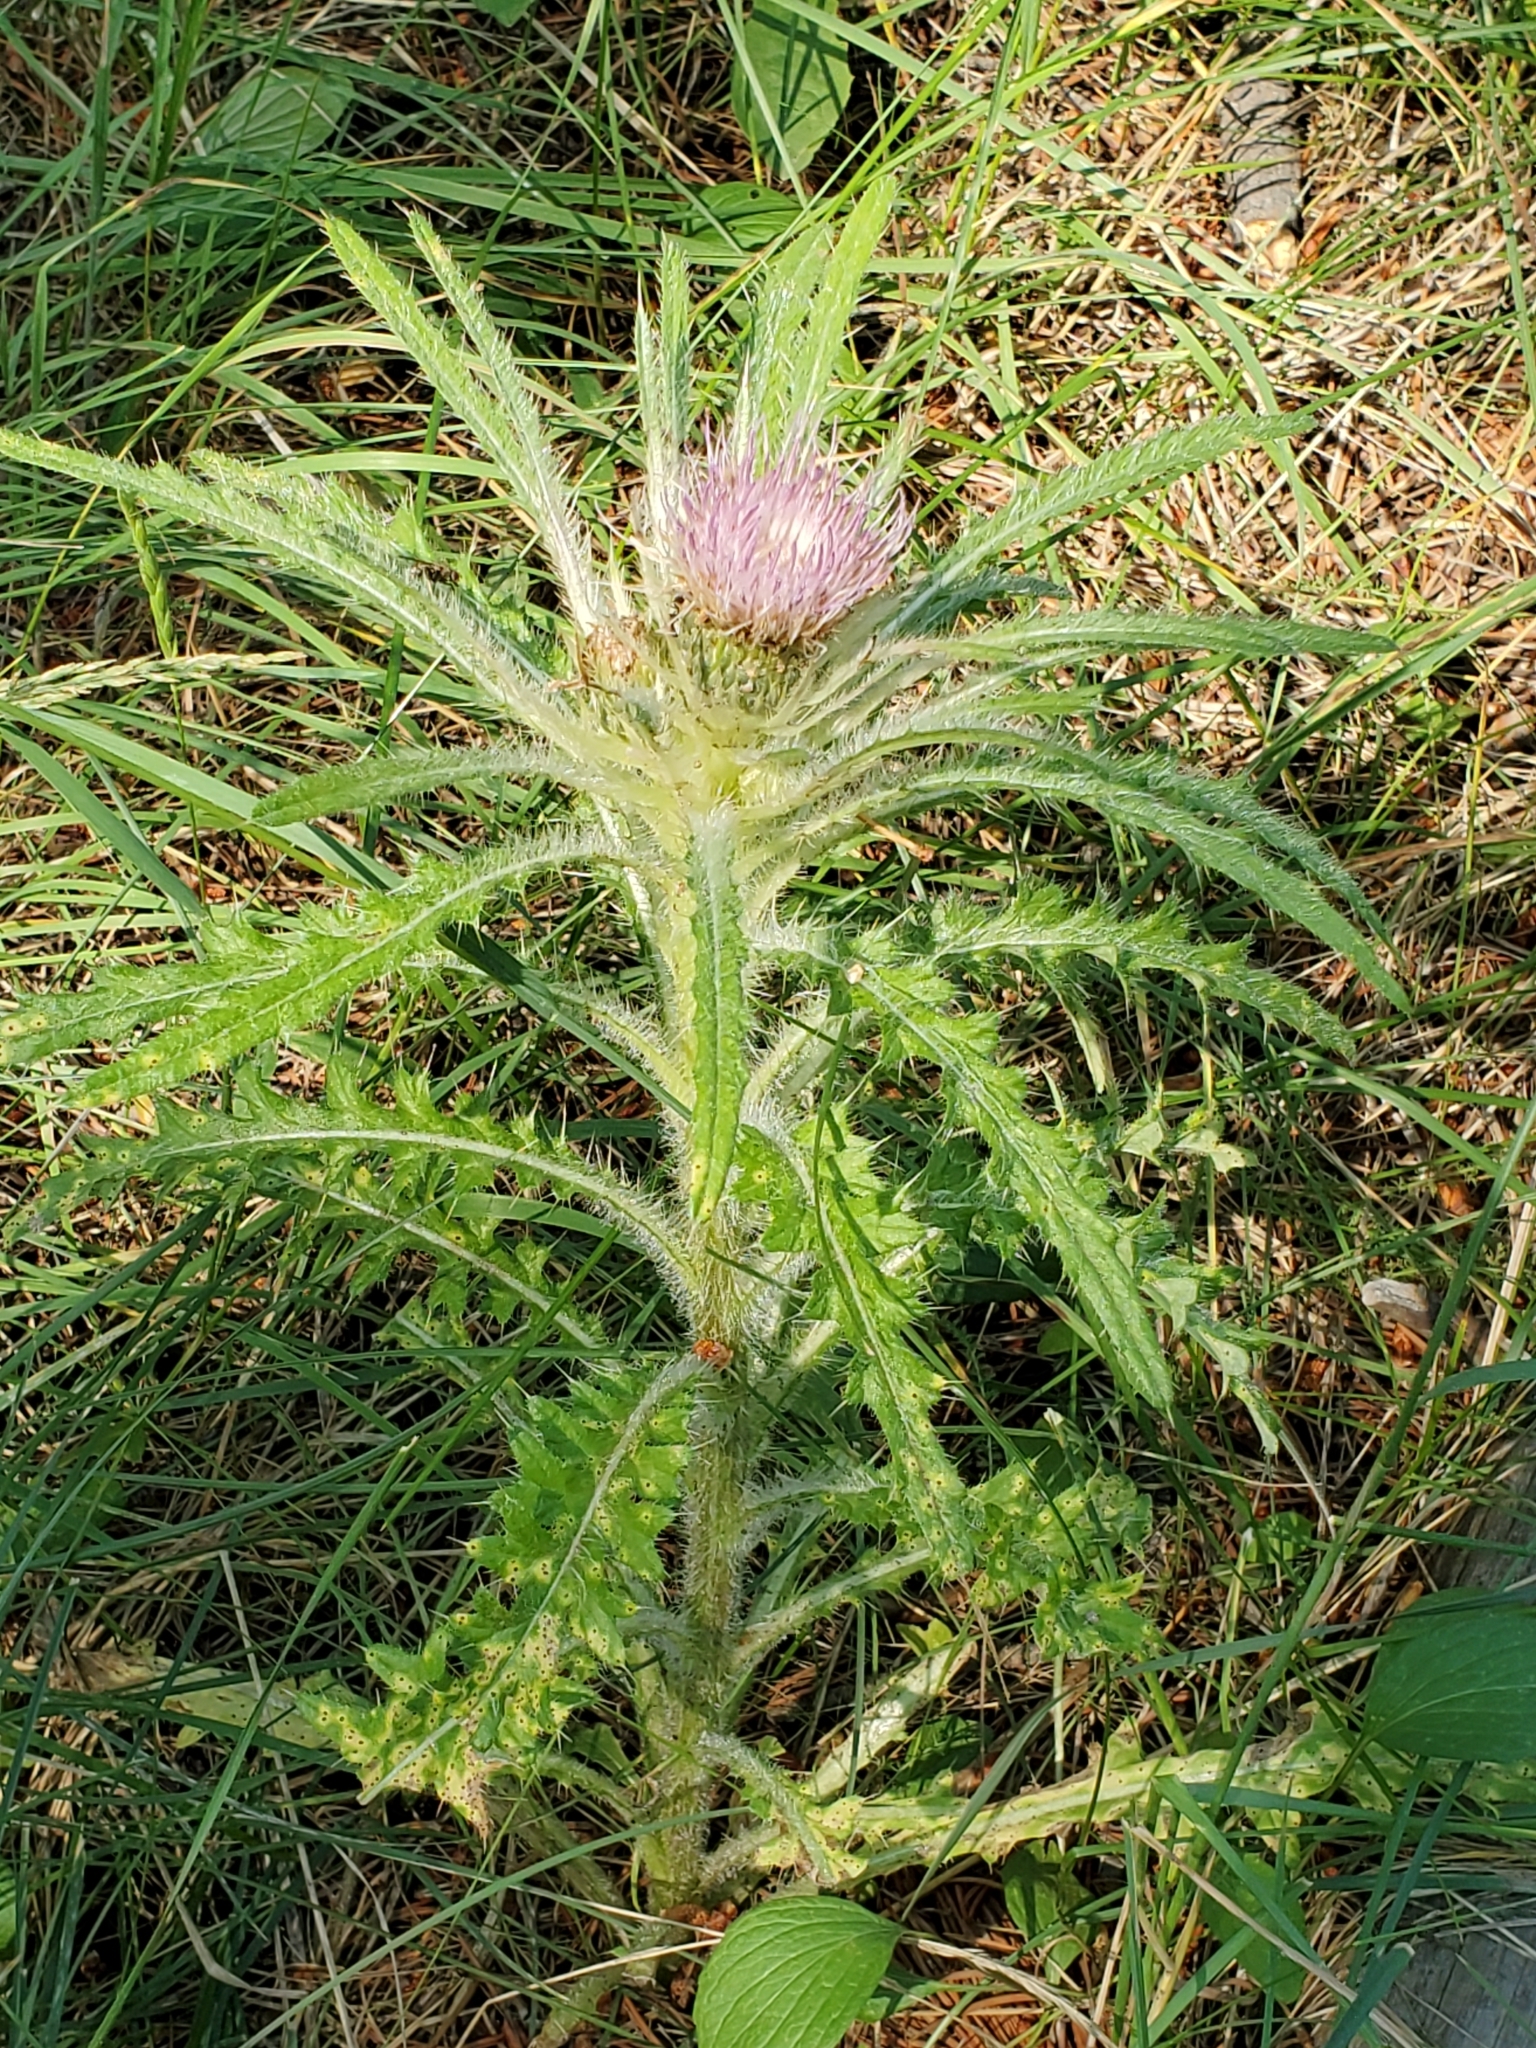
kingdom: Plantae
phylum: Tracheophyta
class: Magnoliopsida
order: Asterales
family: Asteraceae
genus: Cirsium
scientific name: Cirsium scariosum
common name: Meadow thistle
